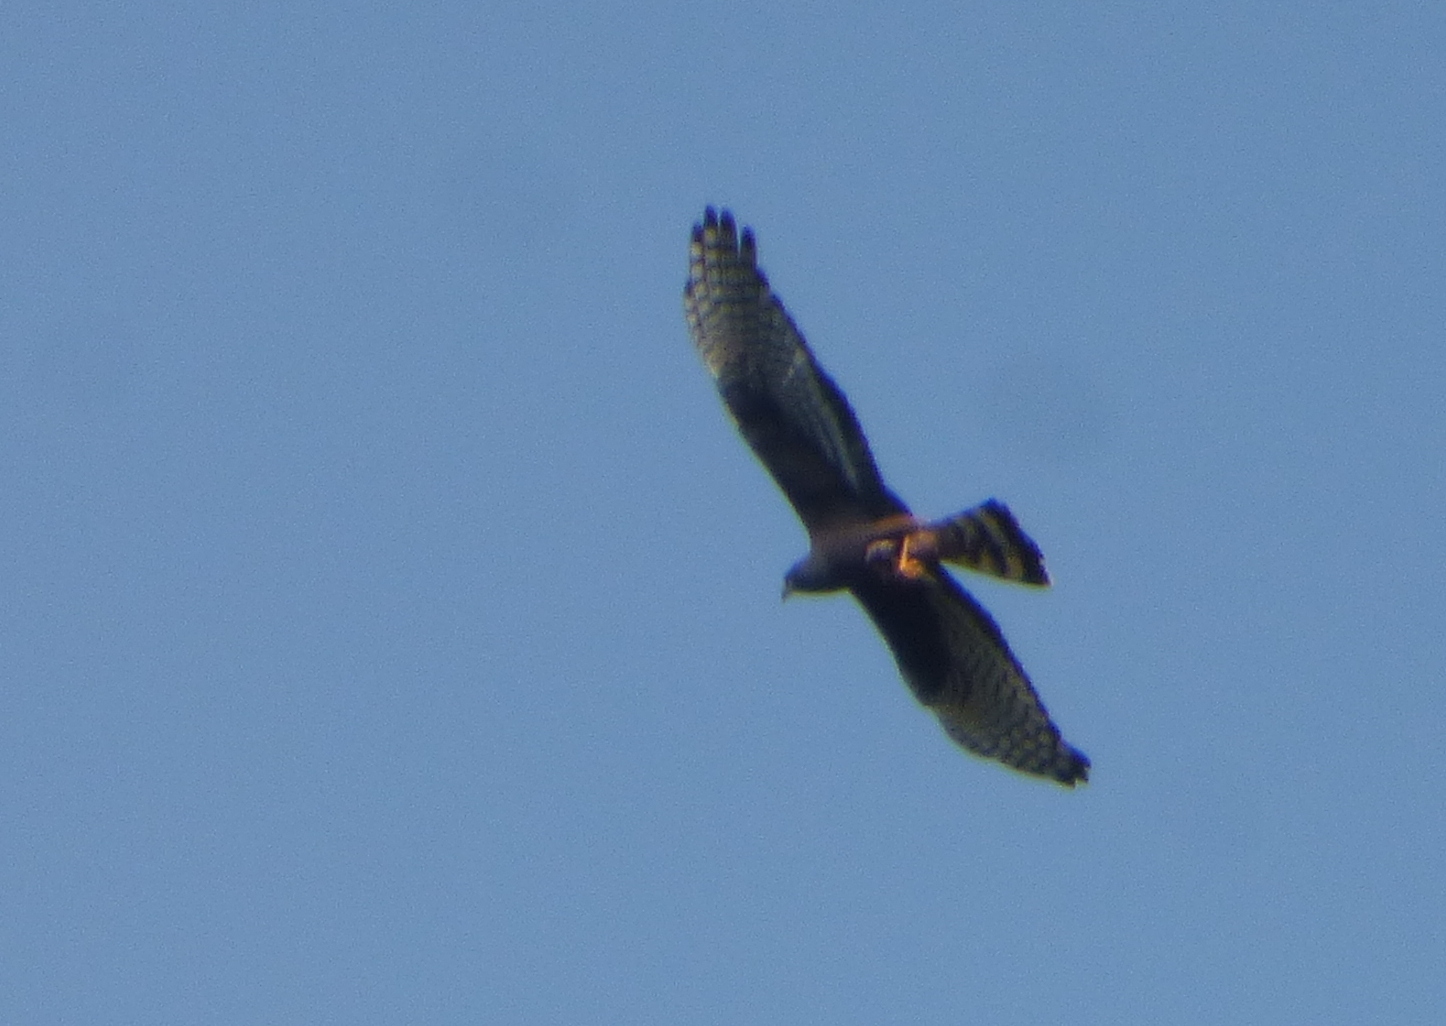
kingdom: Animalia
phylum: Chordata
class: Aves
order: Accipitriformes
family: Accipitridae
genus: Circus
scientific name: Circus buffoni
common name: Long-winged harrier
